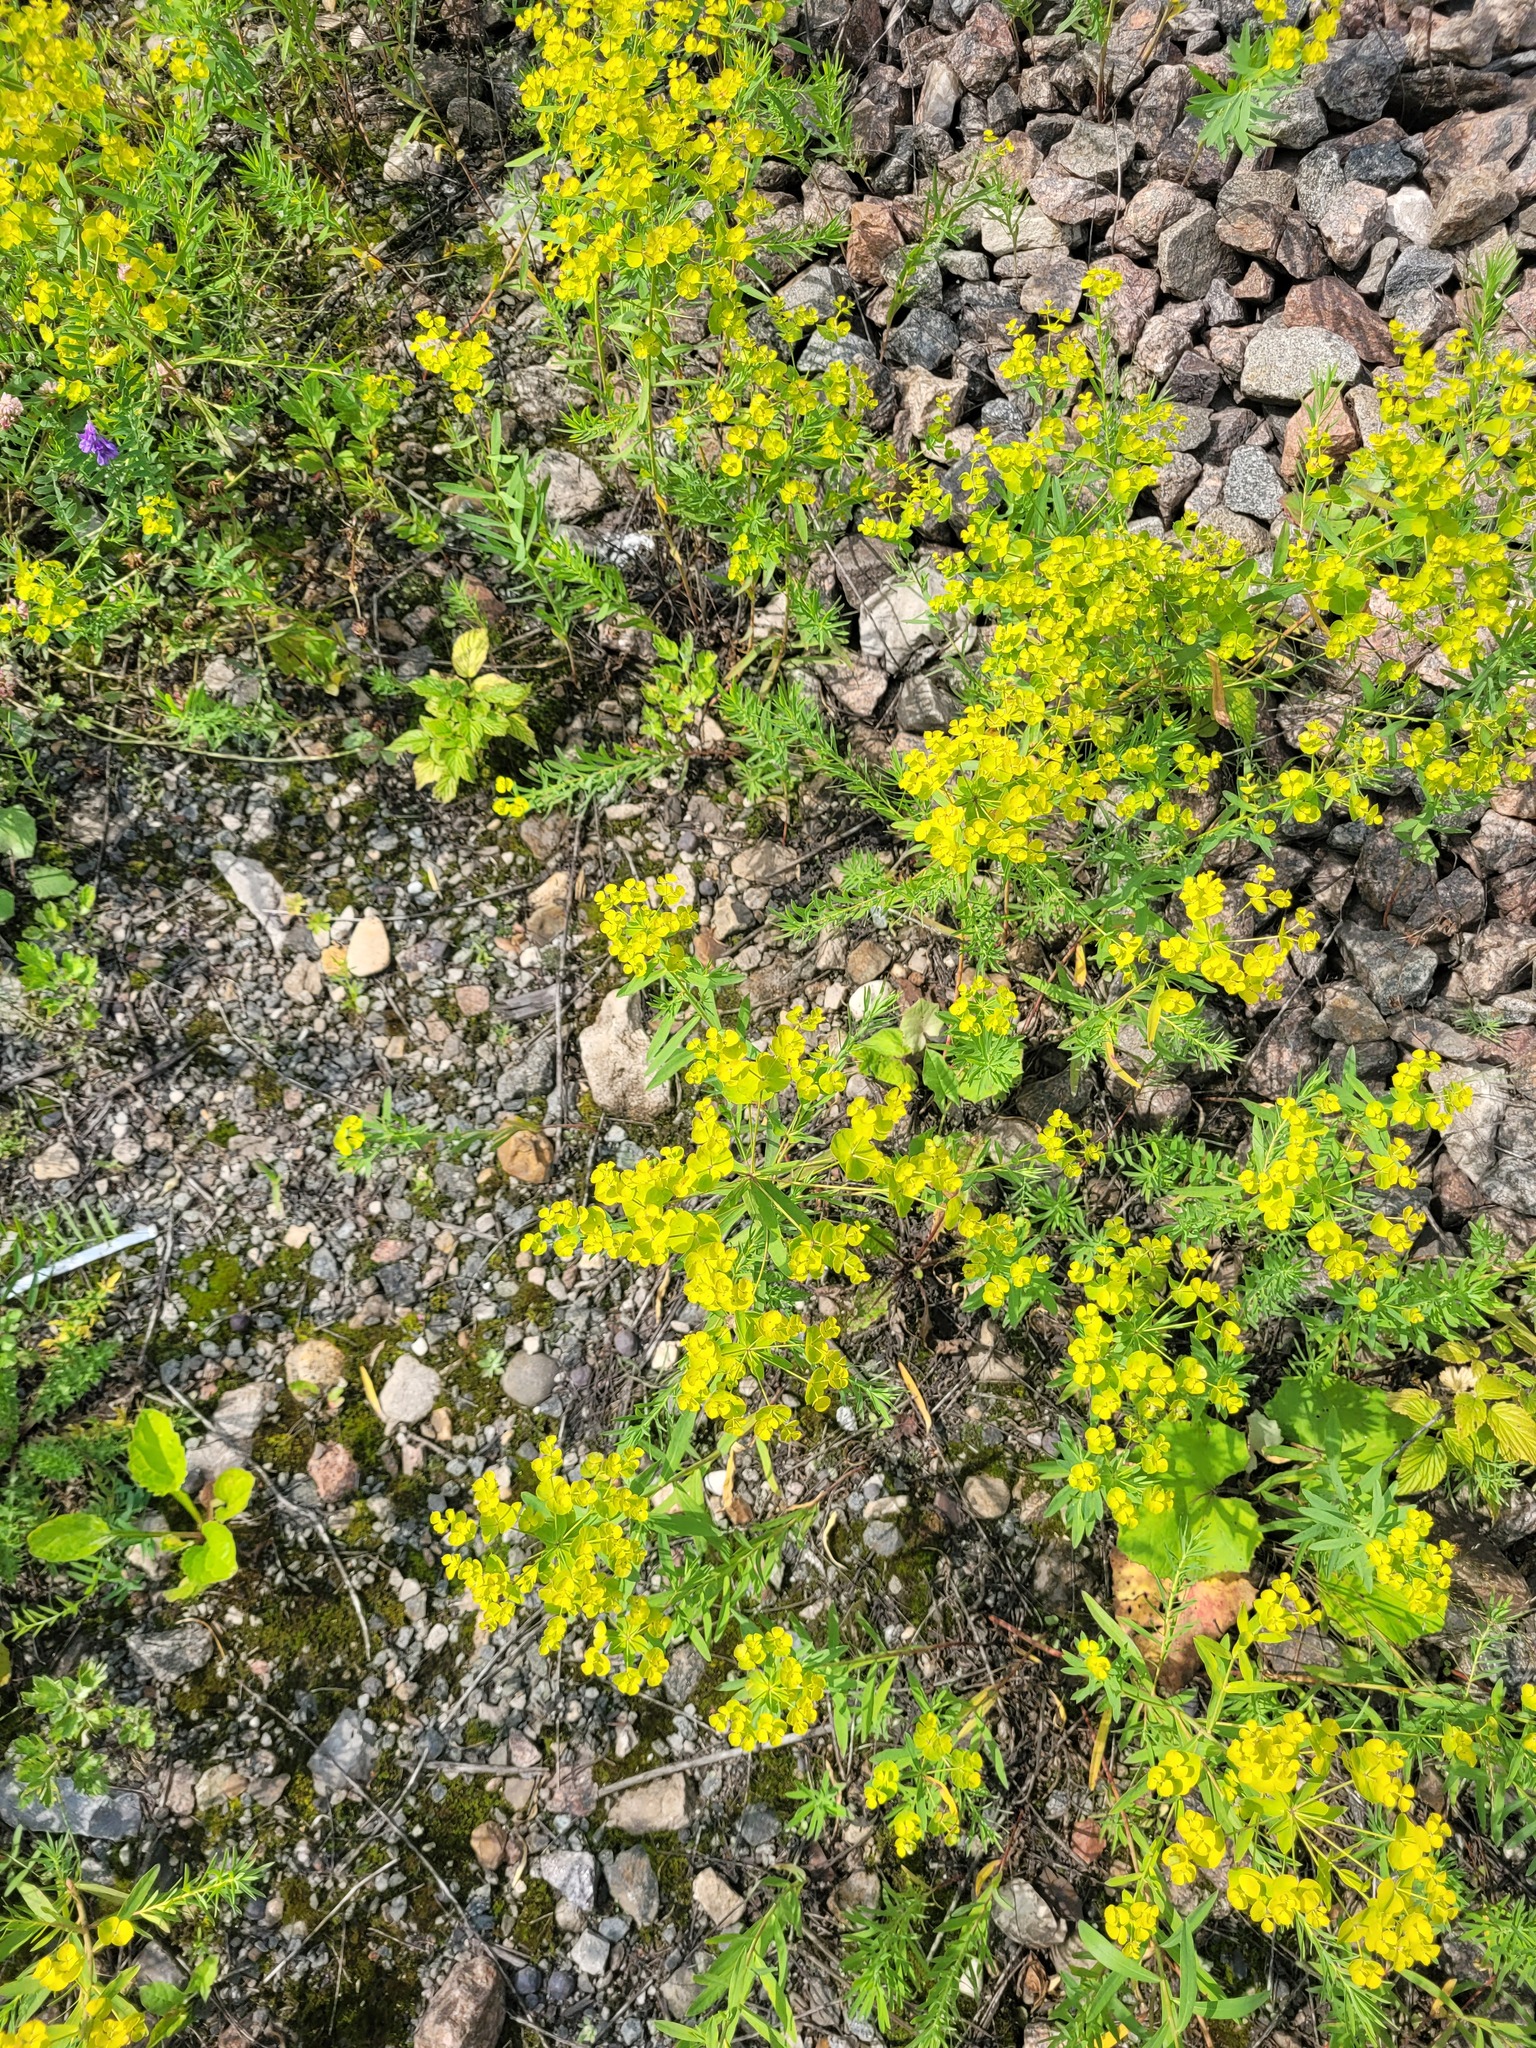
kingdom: Plantae
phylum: Tracheophyta
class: Magnoliopsida
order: Malpighiales
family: Euphorbiaceae
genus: Euphorbia
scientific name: Euphorbia virgata
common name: Leafy spurge
